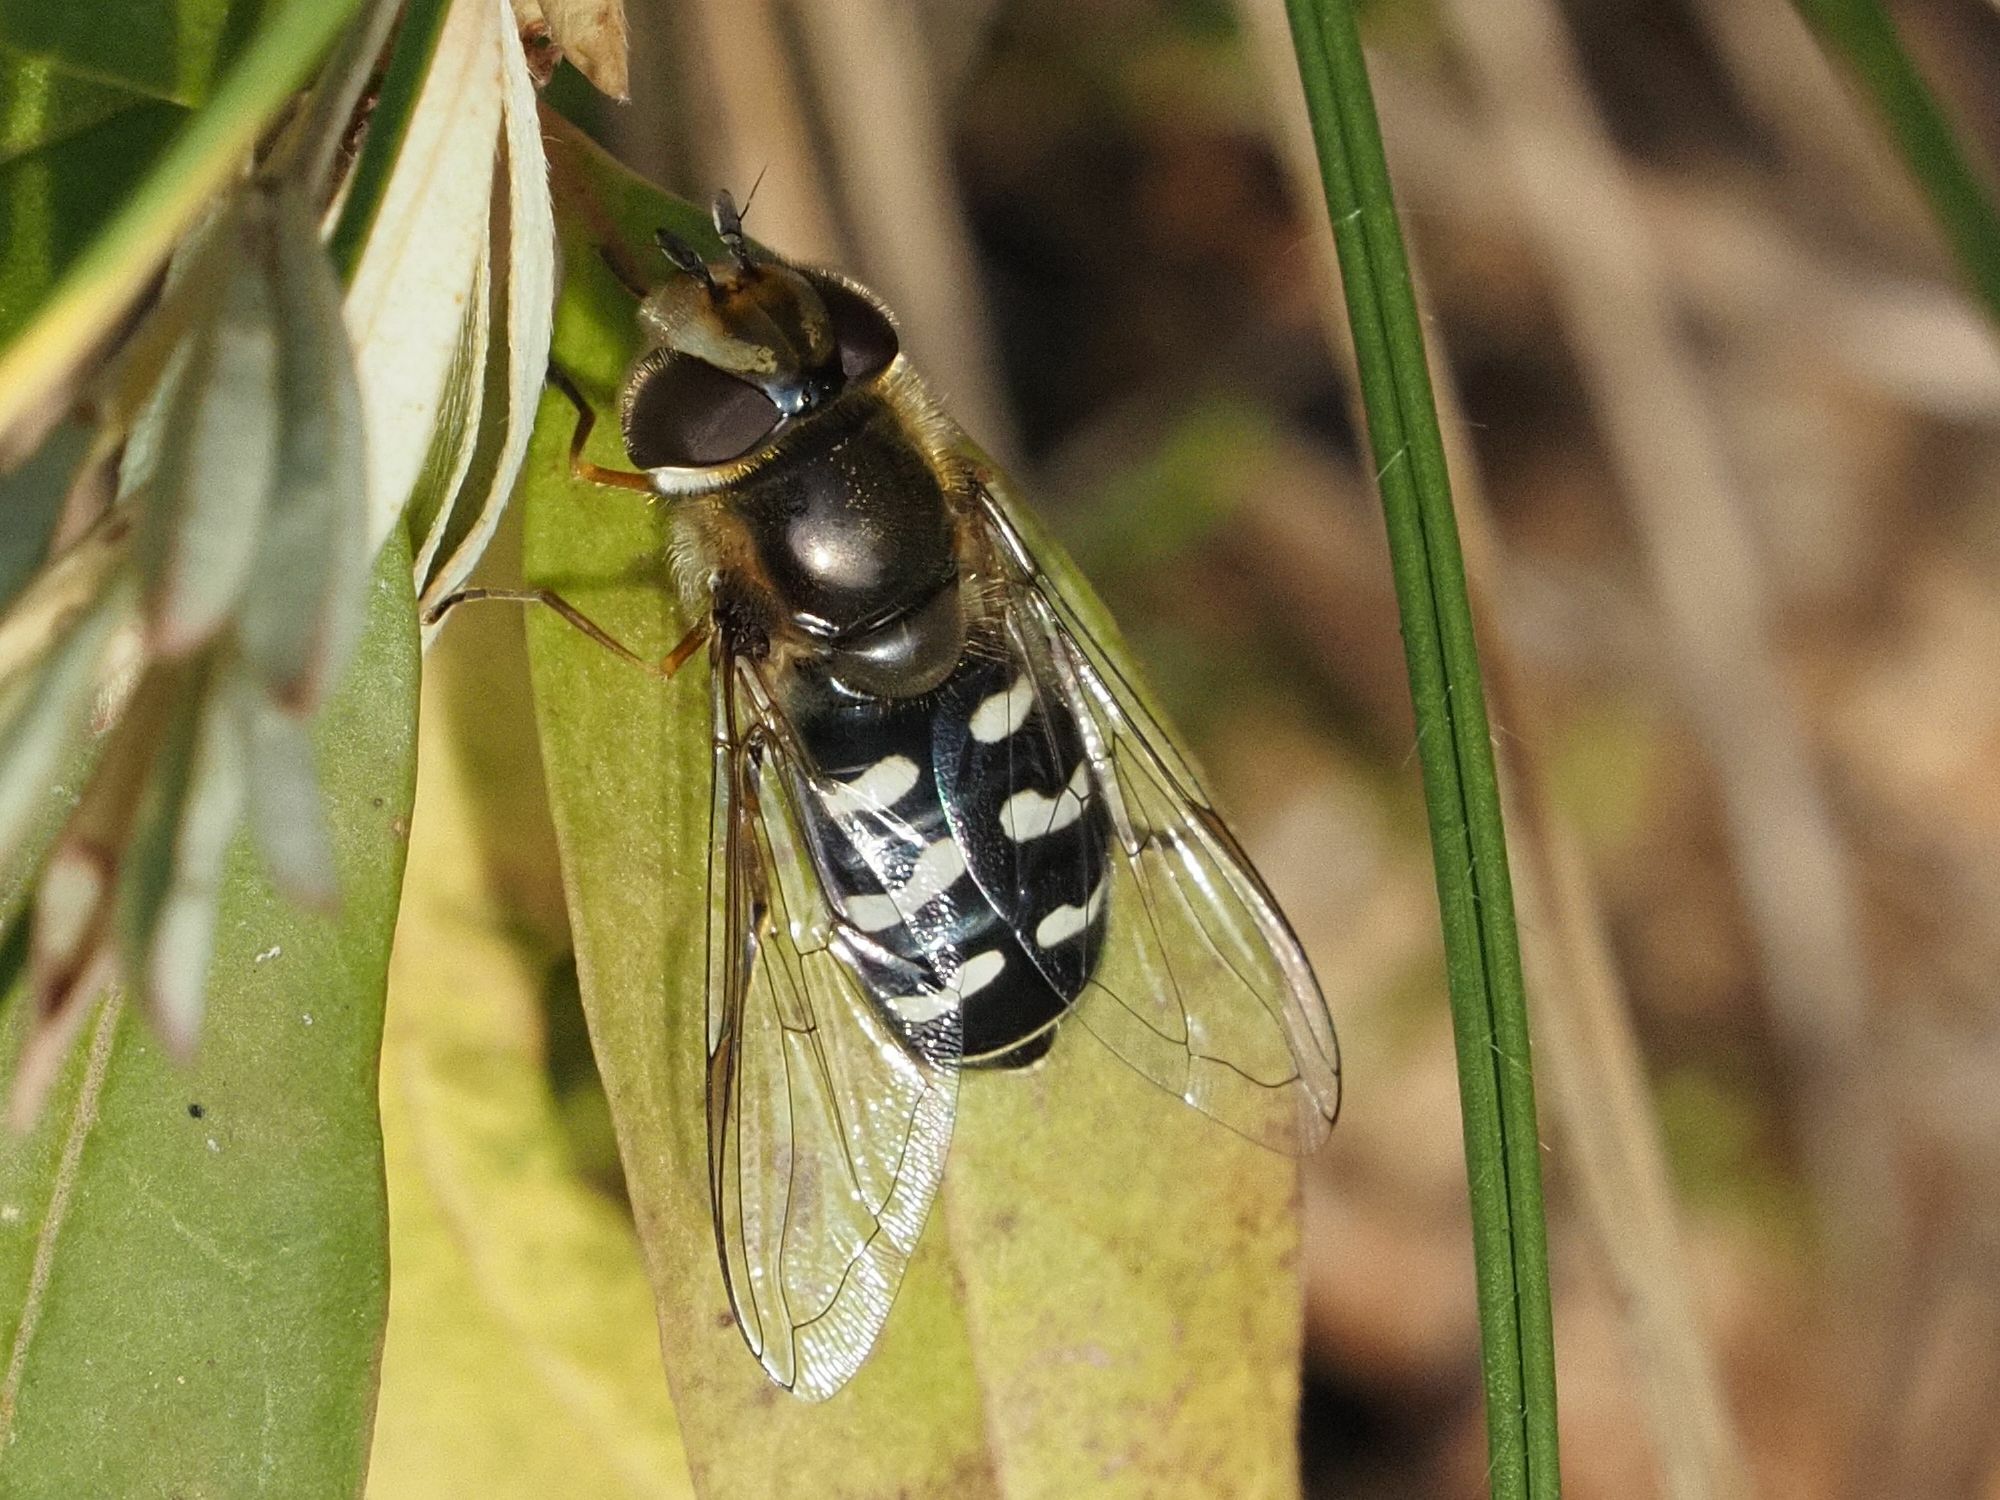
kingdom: Animalia
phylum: Arthropoda
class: Insecta
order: Diptera
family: Syrphidae
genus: Scaeva
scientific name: Scaeva pyrastri
